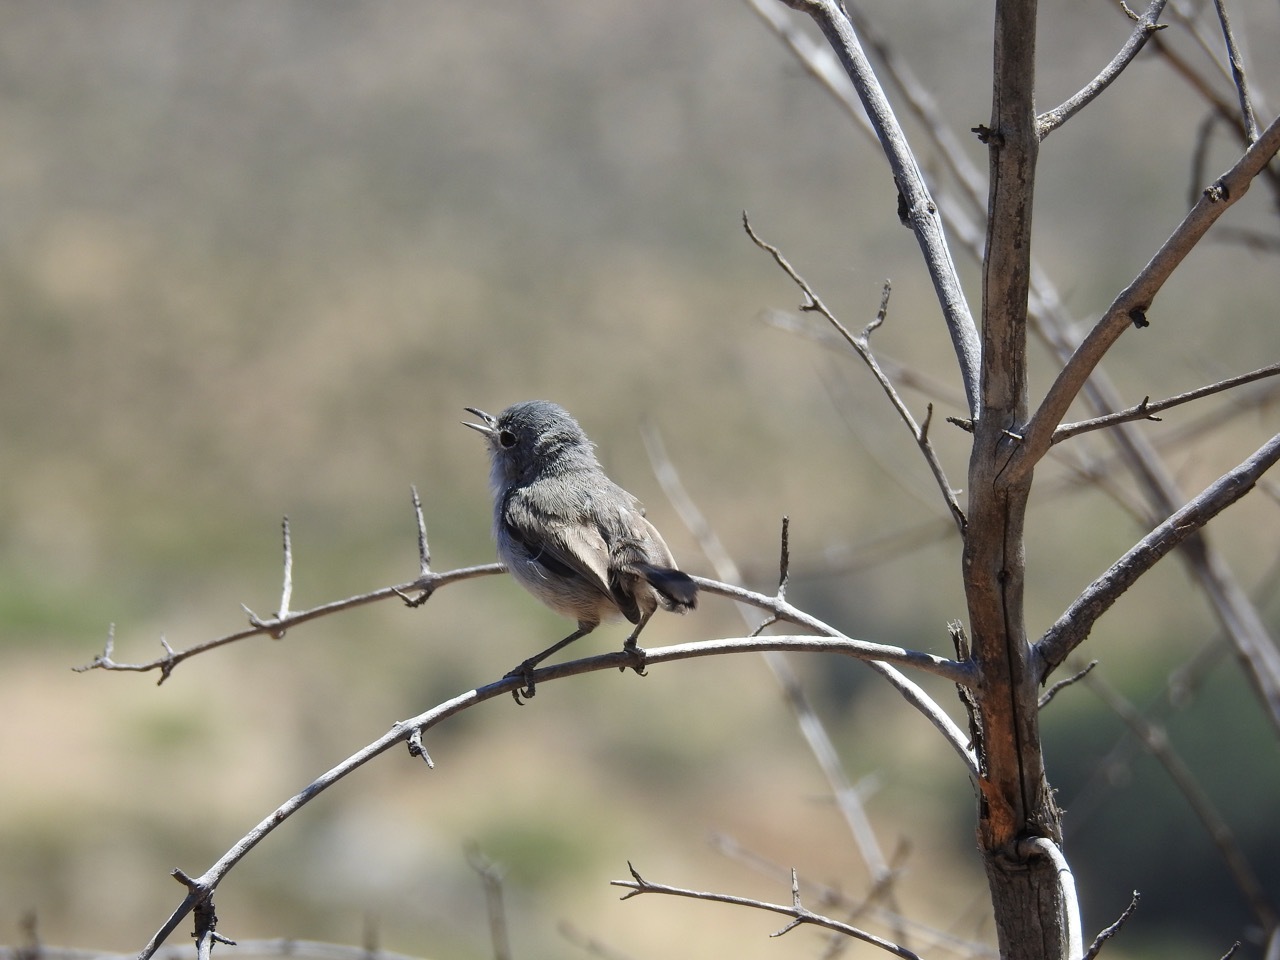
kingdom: Animalia
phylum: Chordata
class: Aves
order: Passeriformes
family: Polioptilidae
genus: Polioptila
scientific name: Polioptila californica
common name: California gnatcatcher
